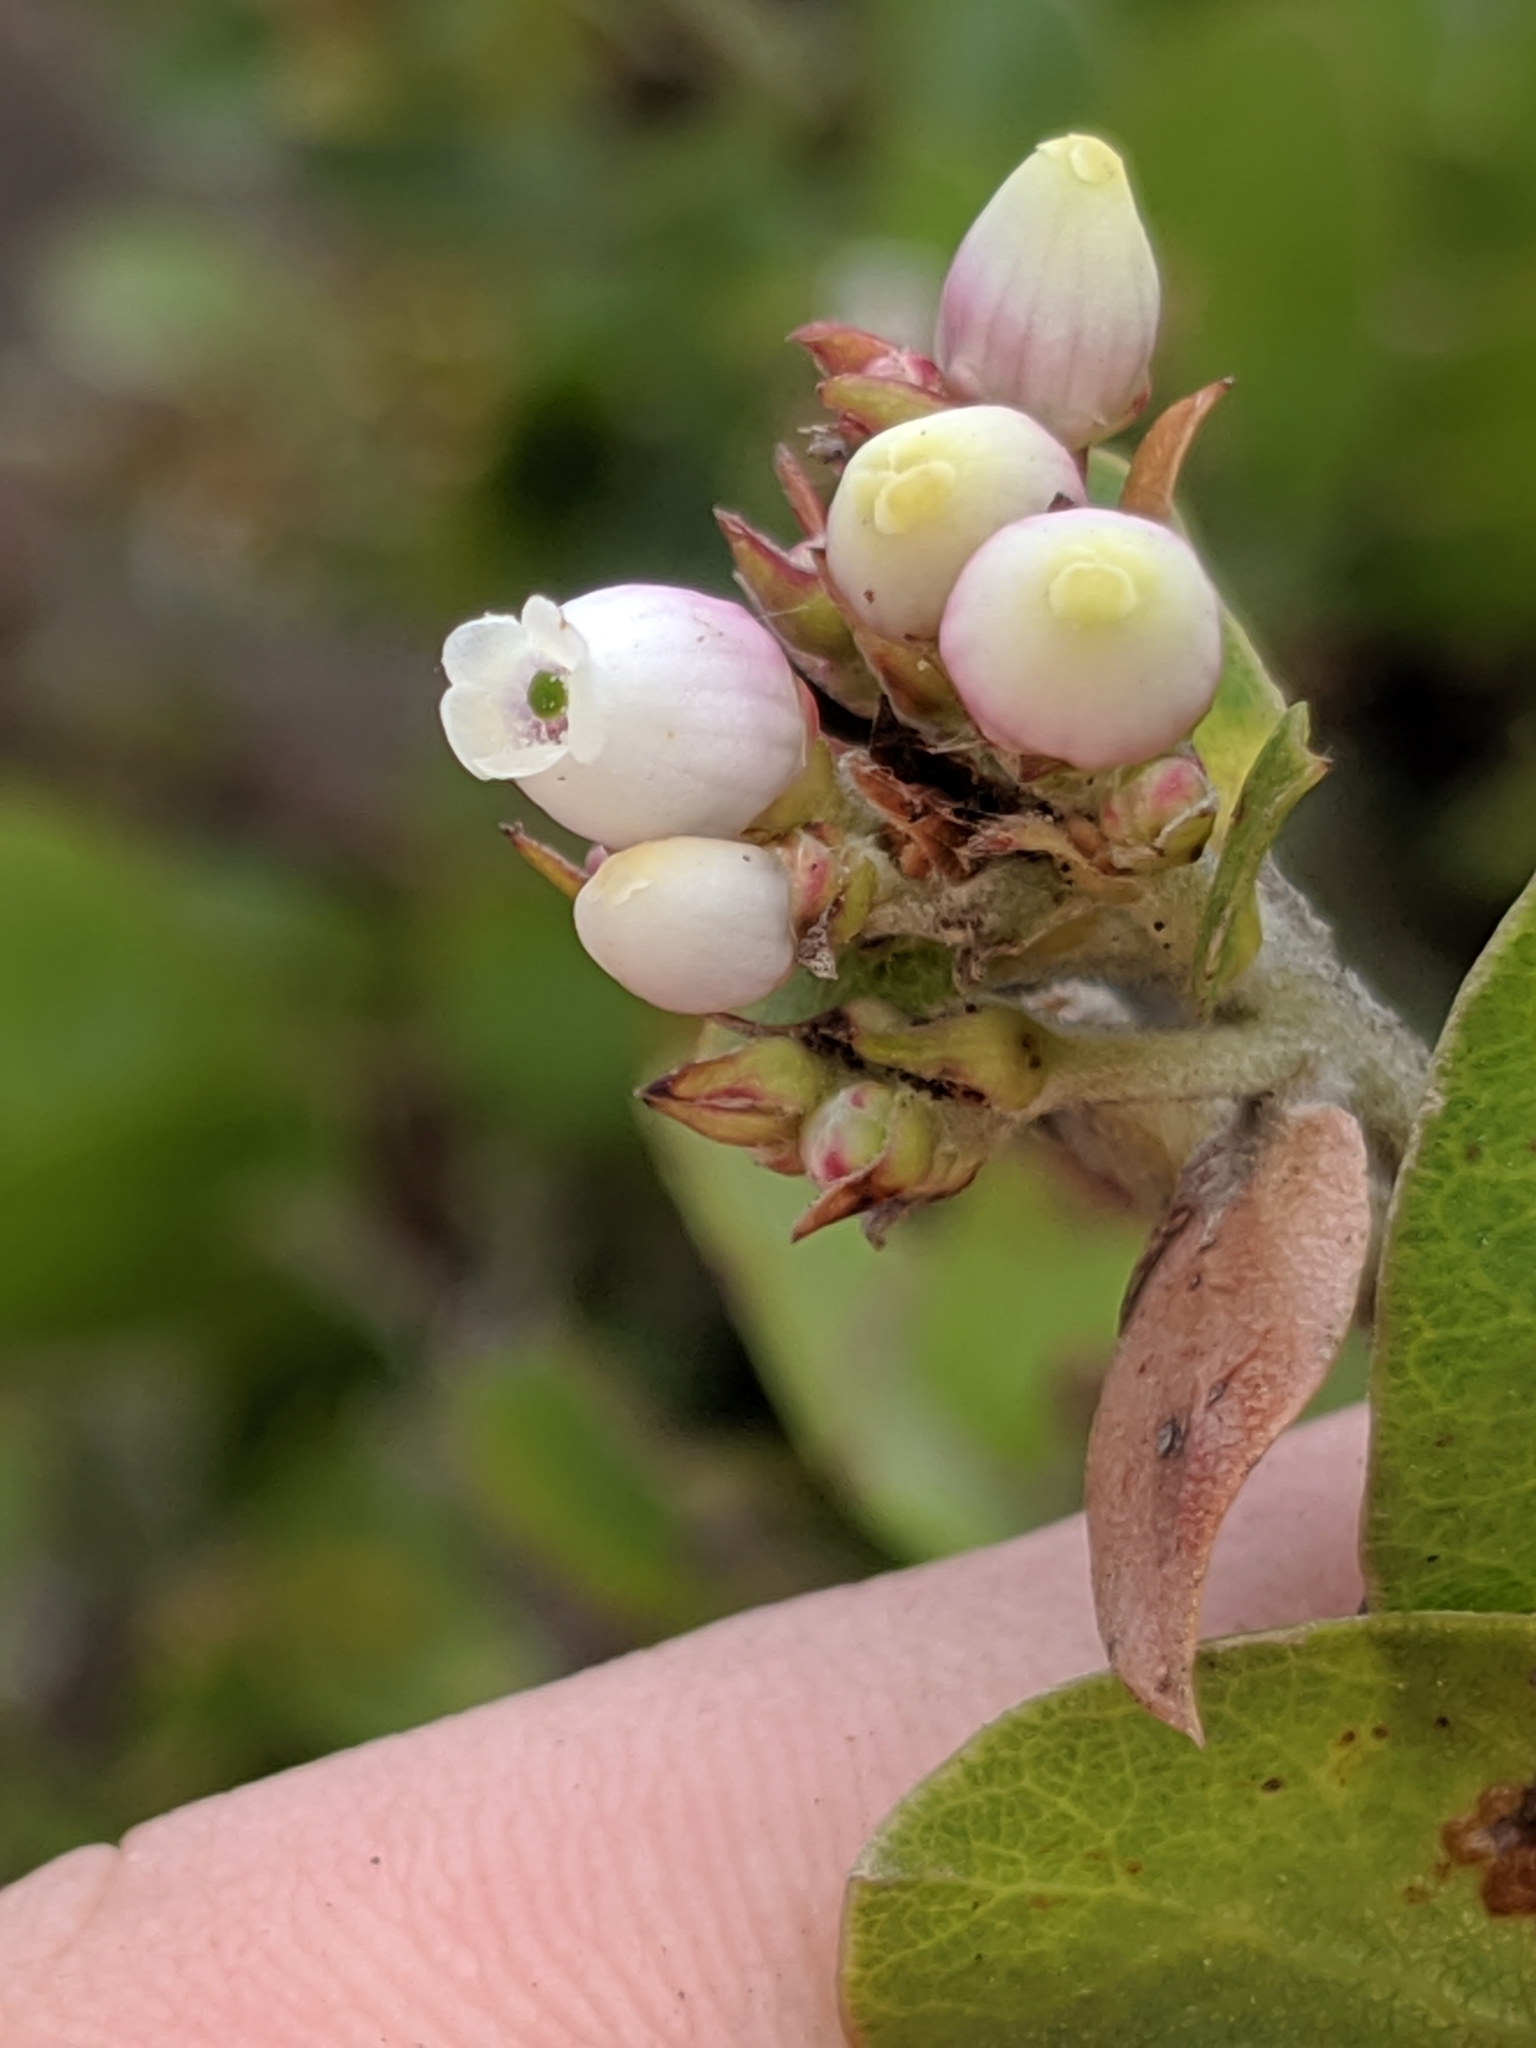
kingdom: Plantae
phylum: Tracheophyta
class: Magnoliopsida
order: Ericales
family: Ericaceae
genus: Arctostaphylos
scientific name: Arctostaphylos osoensis
